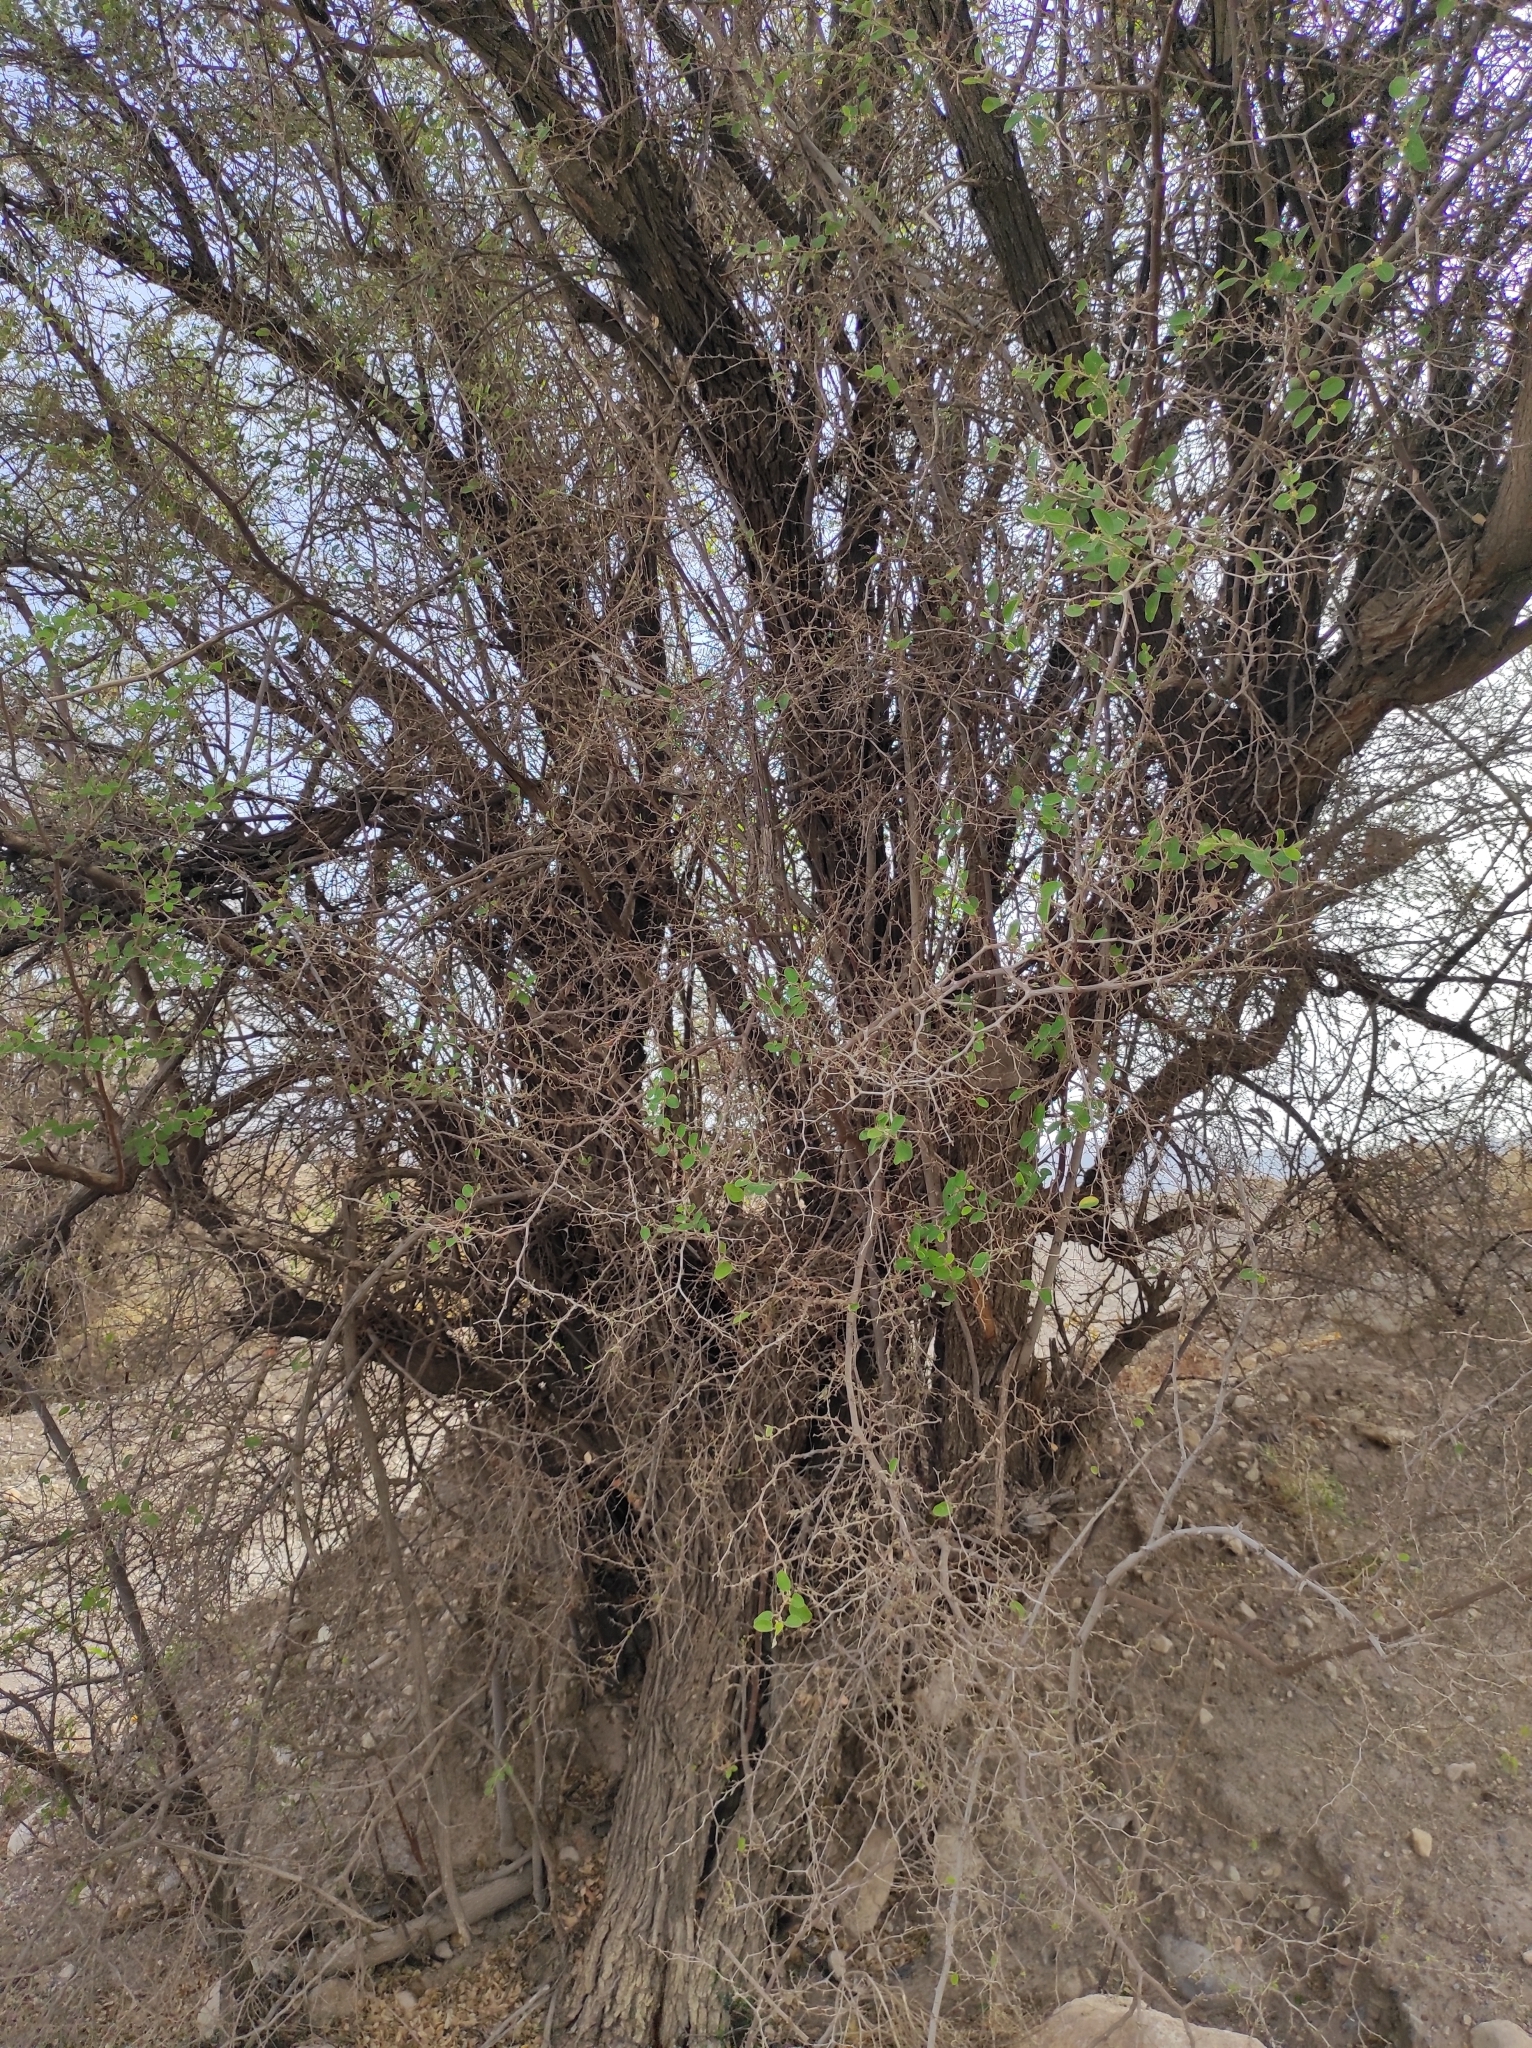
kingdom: Plantae
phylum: Tracheophyta
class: Magnoliopsida
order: Rosales
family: Rhamnaceae
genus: Ziziphus
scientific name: Ziziphus spina-christi
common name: Syrian christ-thorn
